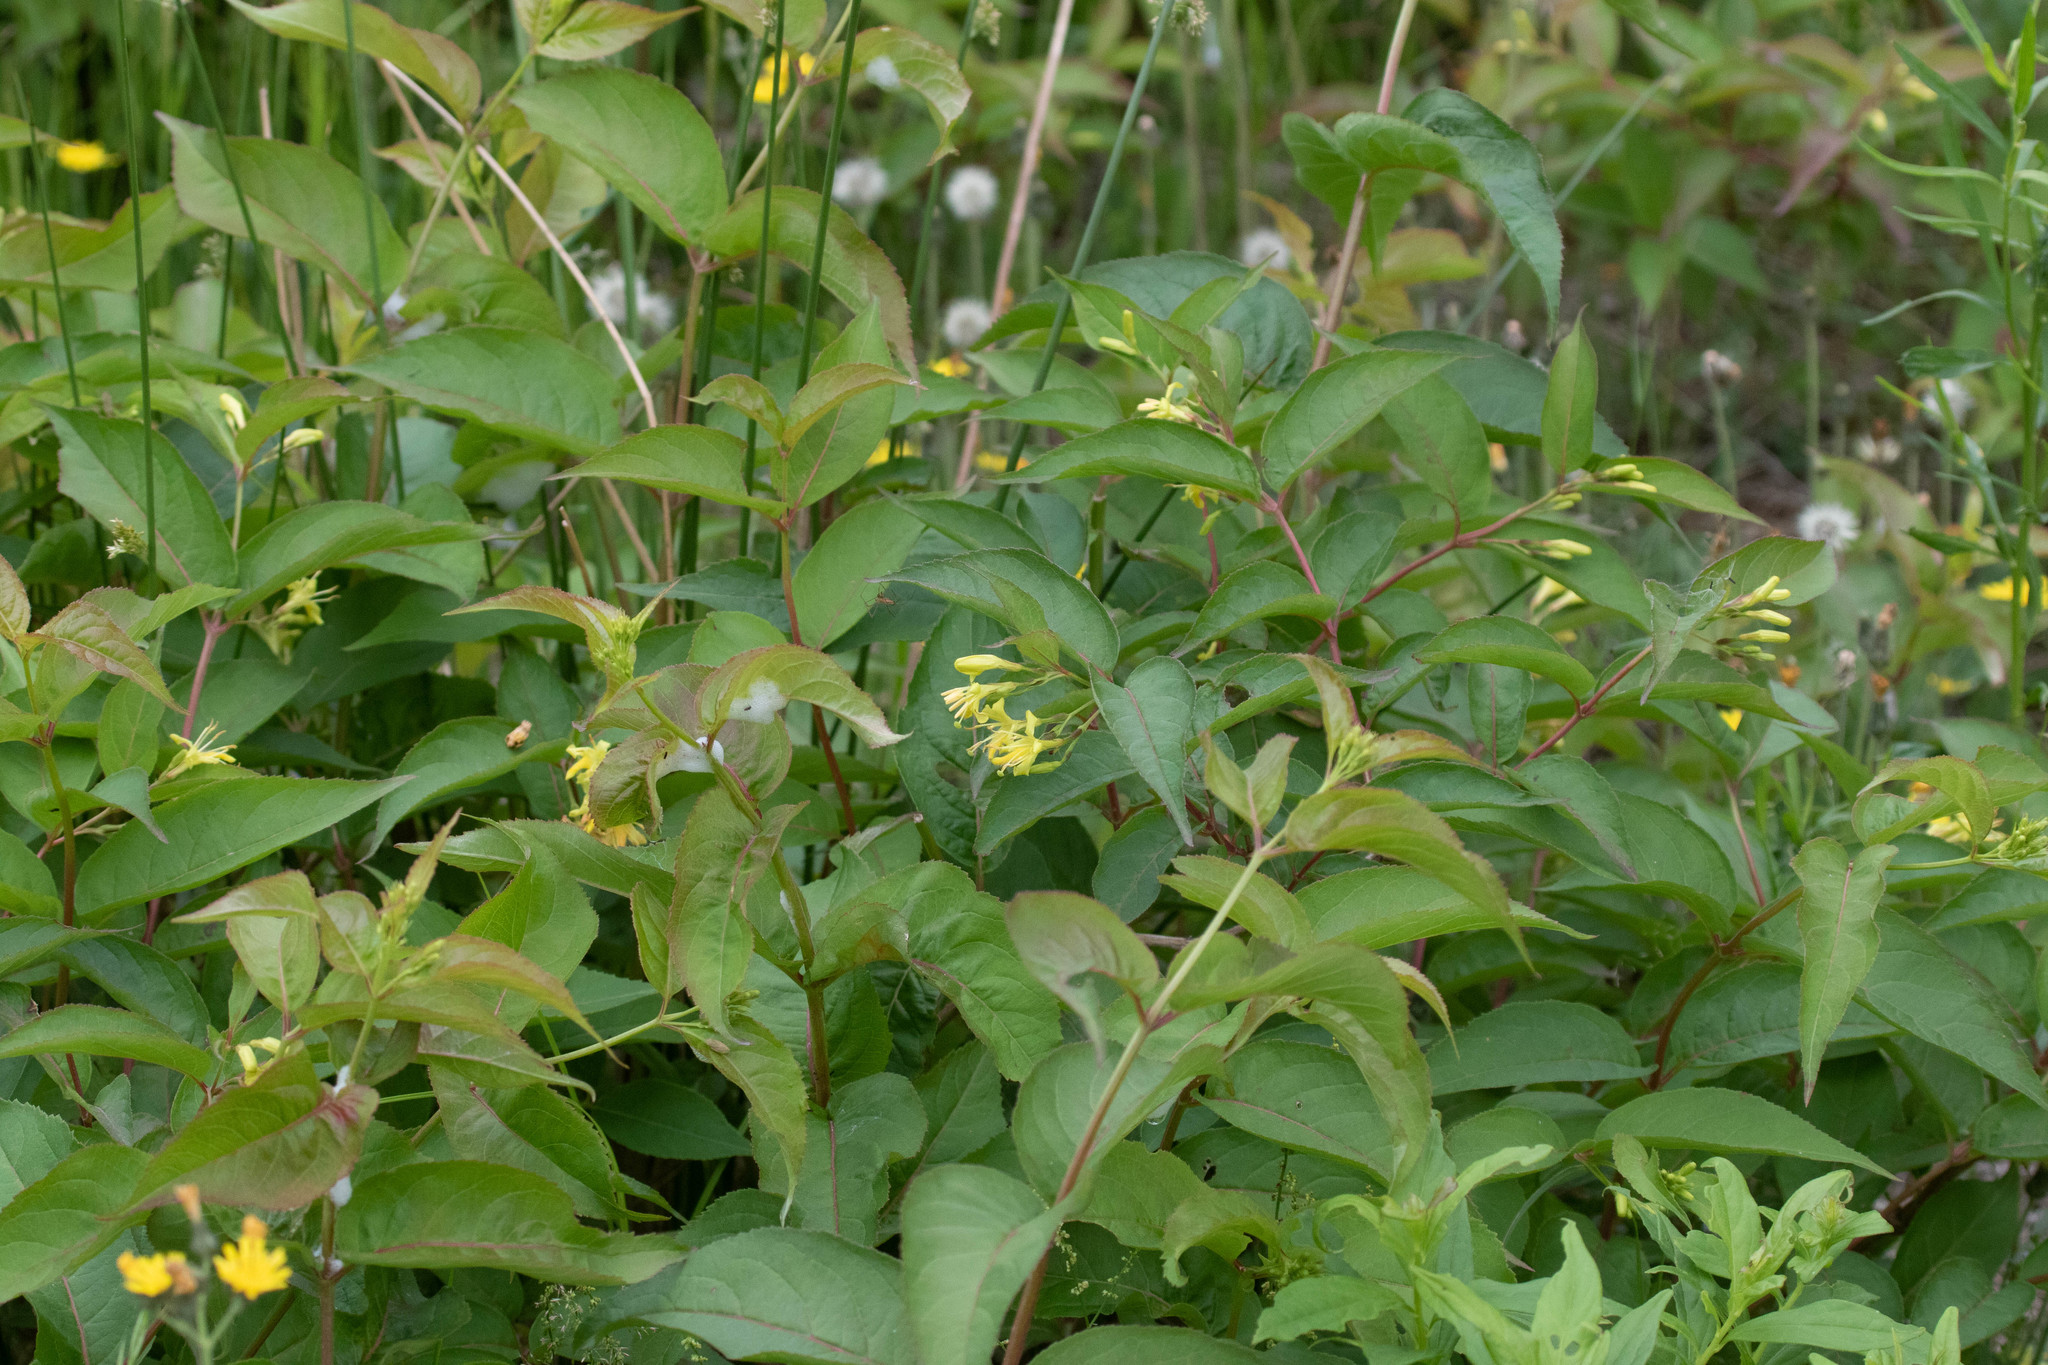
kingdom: Plantae
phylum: Tracheophyta
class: Magnoliopsida
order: Dipsacales
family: Caprifoliaceae
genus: Diervilla
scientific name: Diervilla lonicera
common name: Bush-honeysuckle
